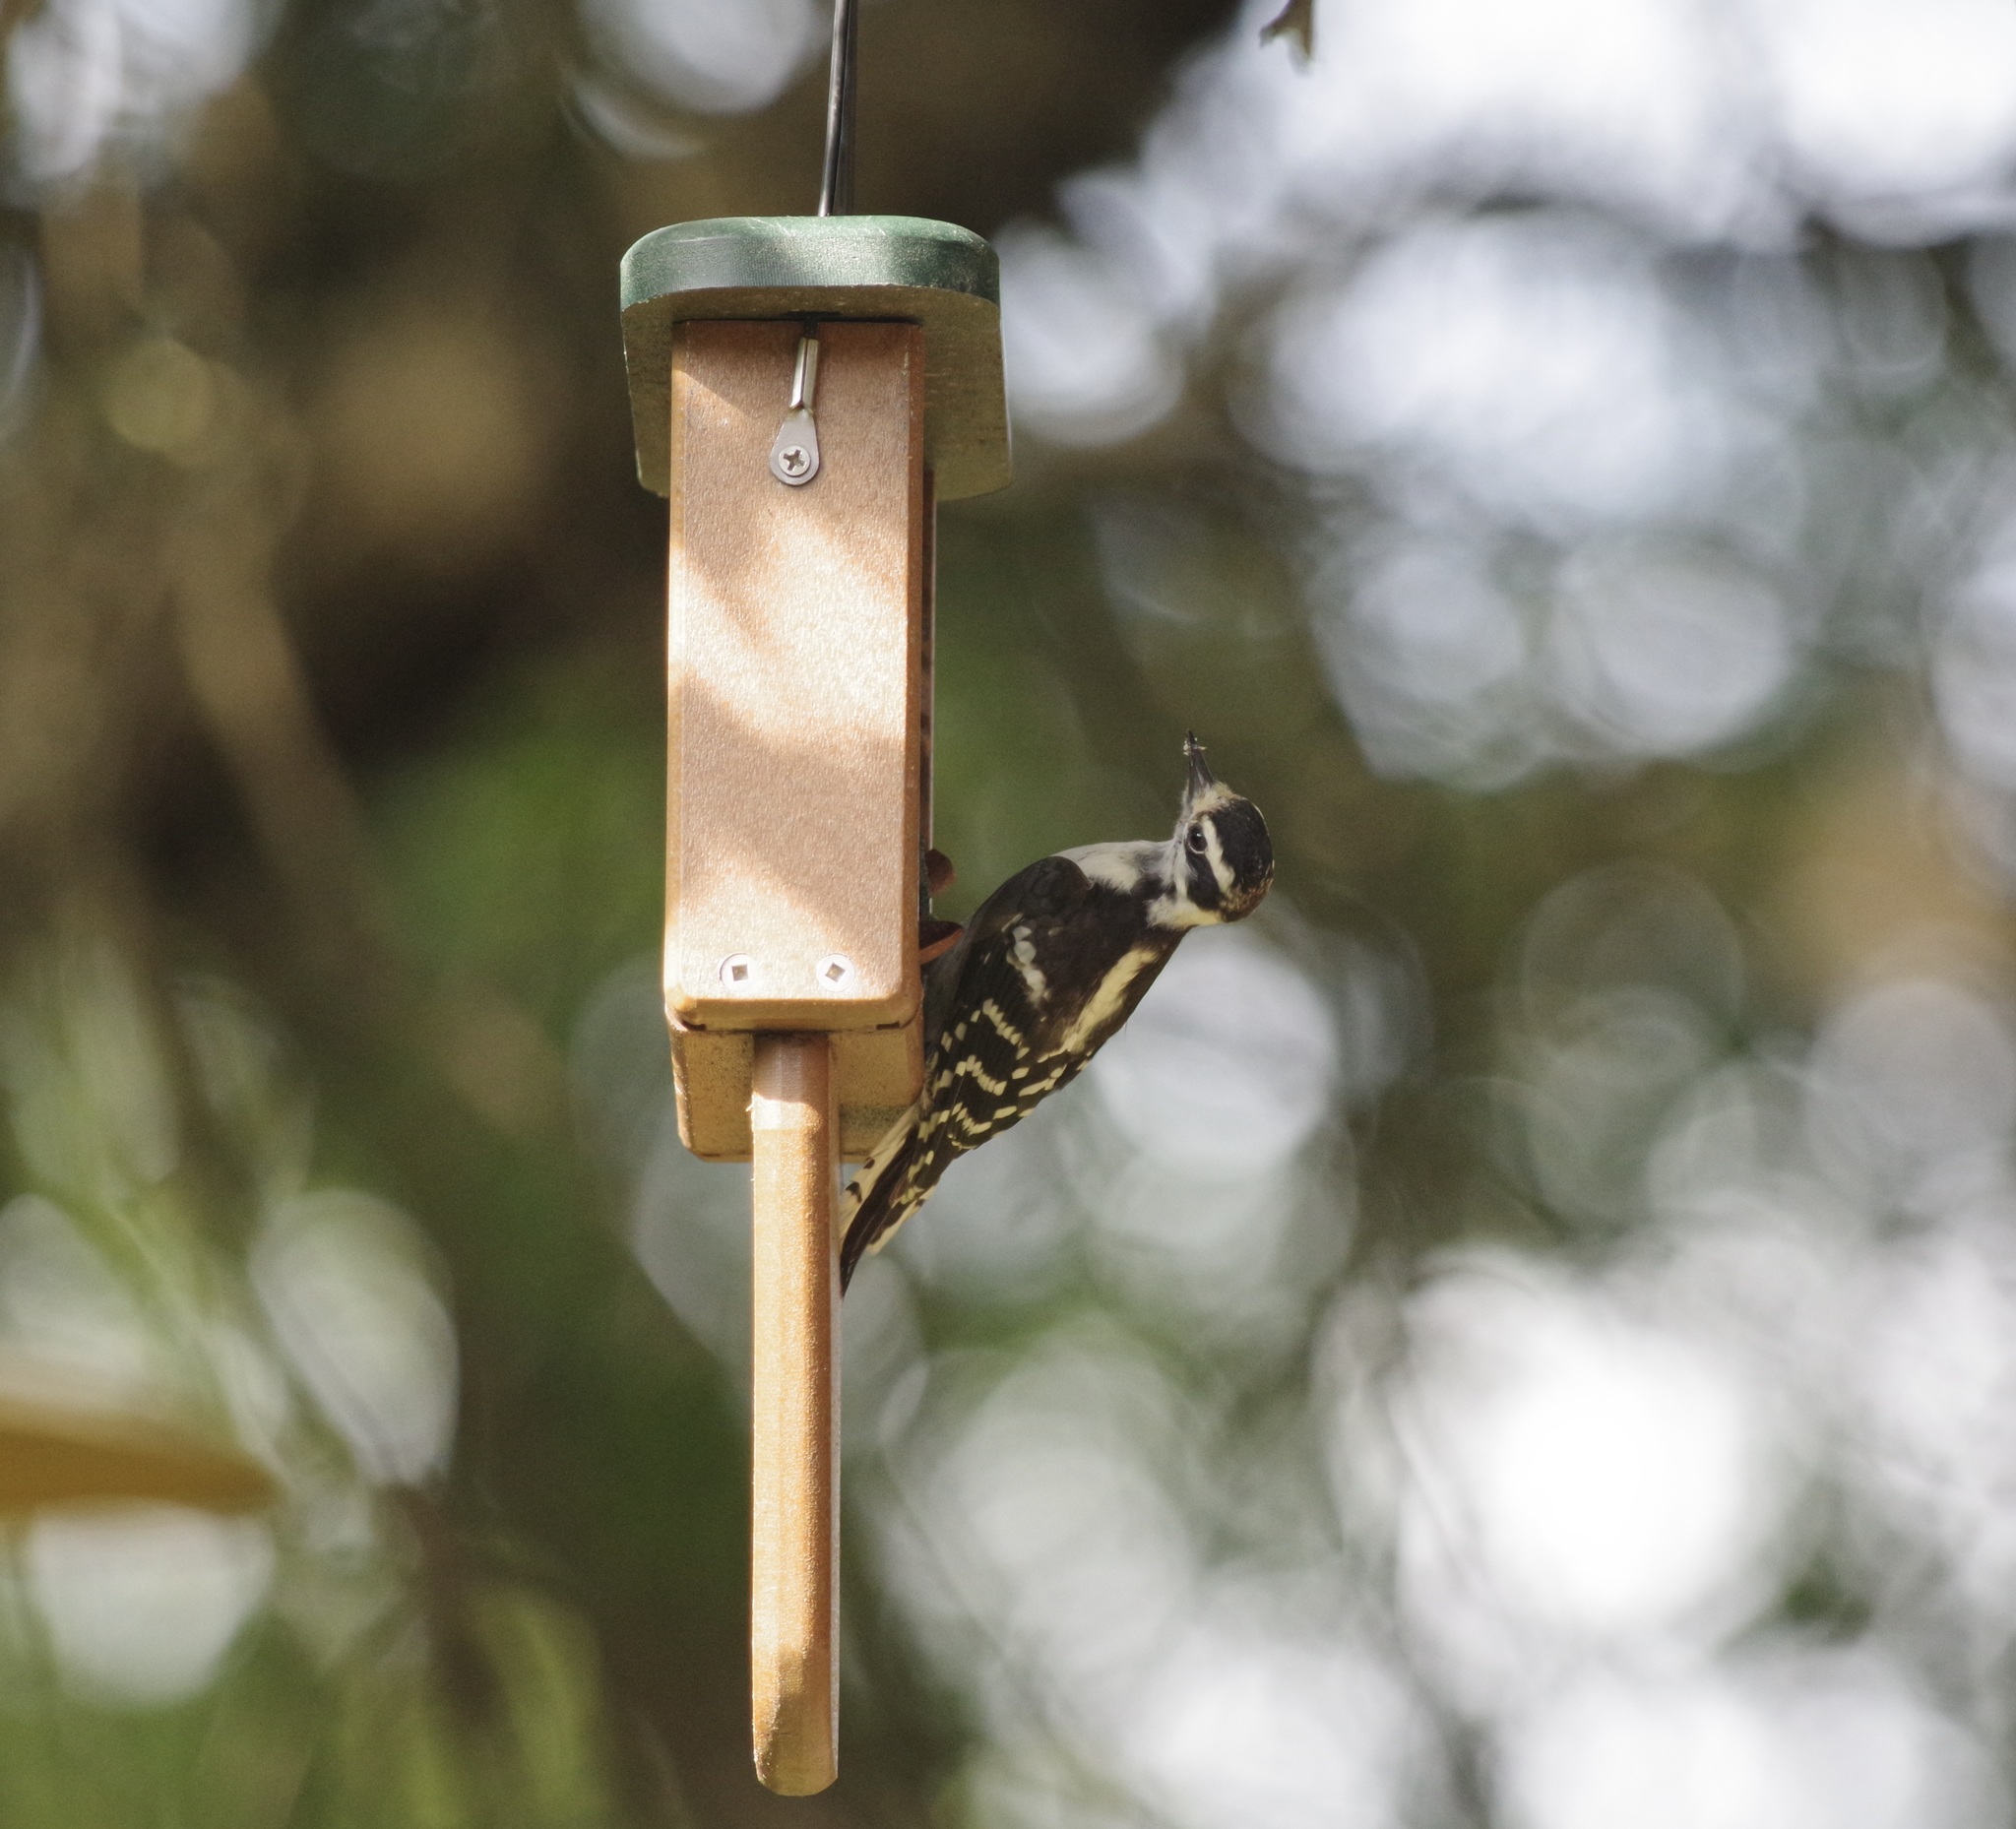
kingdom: Animalia
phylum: Chordata
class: Aves
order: Piciformes
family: Picidae
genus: Dryobates
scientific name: Dryobates pubescens
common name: Downy woodpecker
